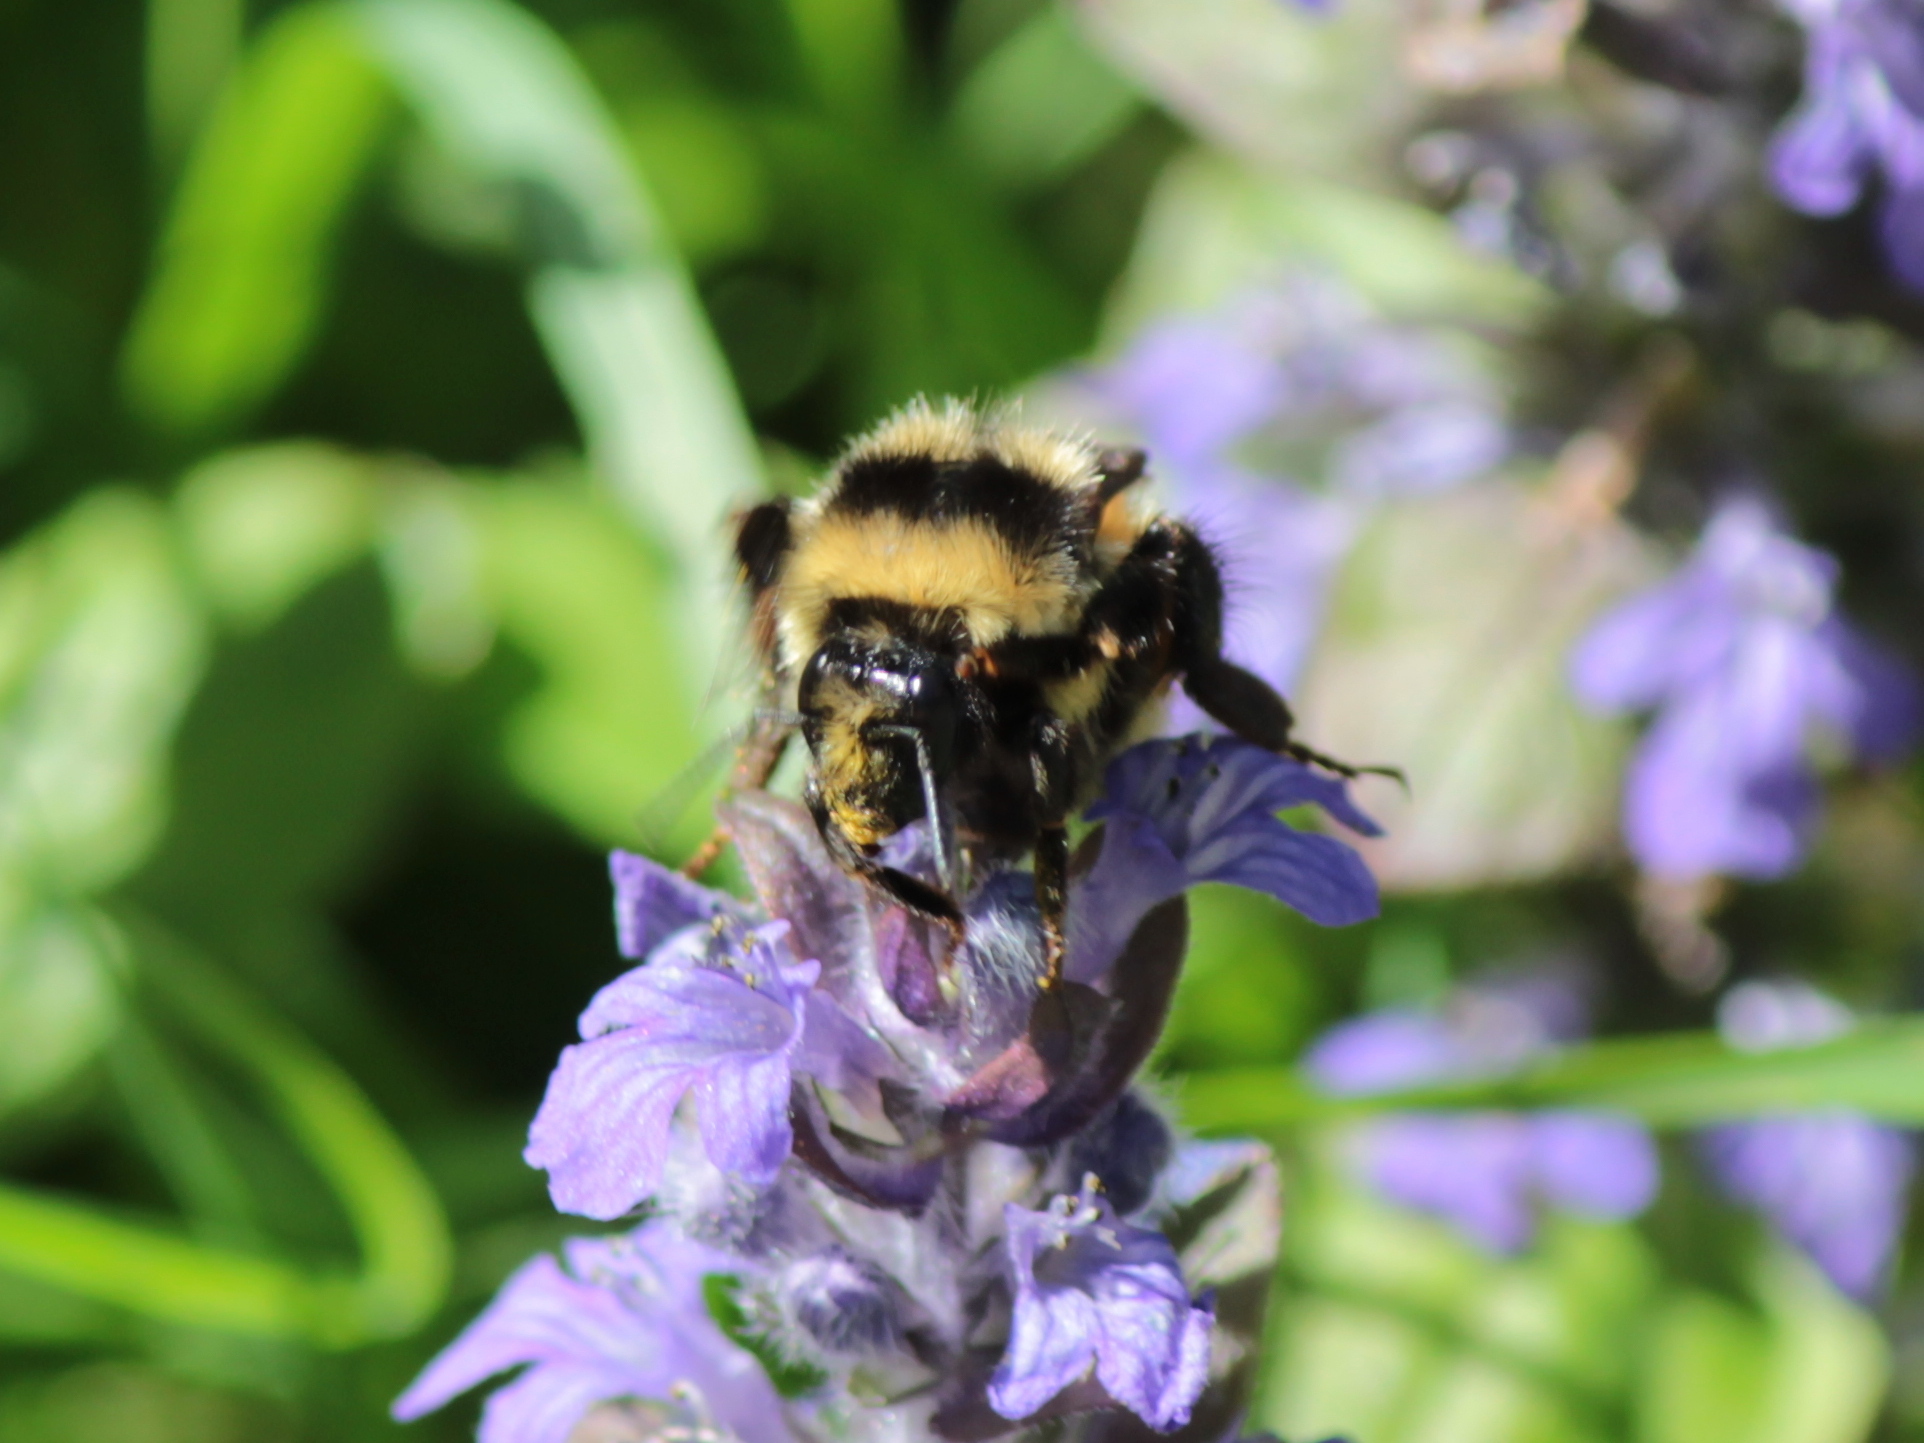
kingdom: Animalia
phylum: Arthropoda
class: Insecta
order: Hymenoptera
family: Apidae
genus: Bombus
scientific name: Bombus ternarius
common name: Tri-colored bumble bee
